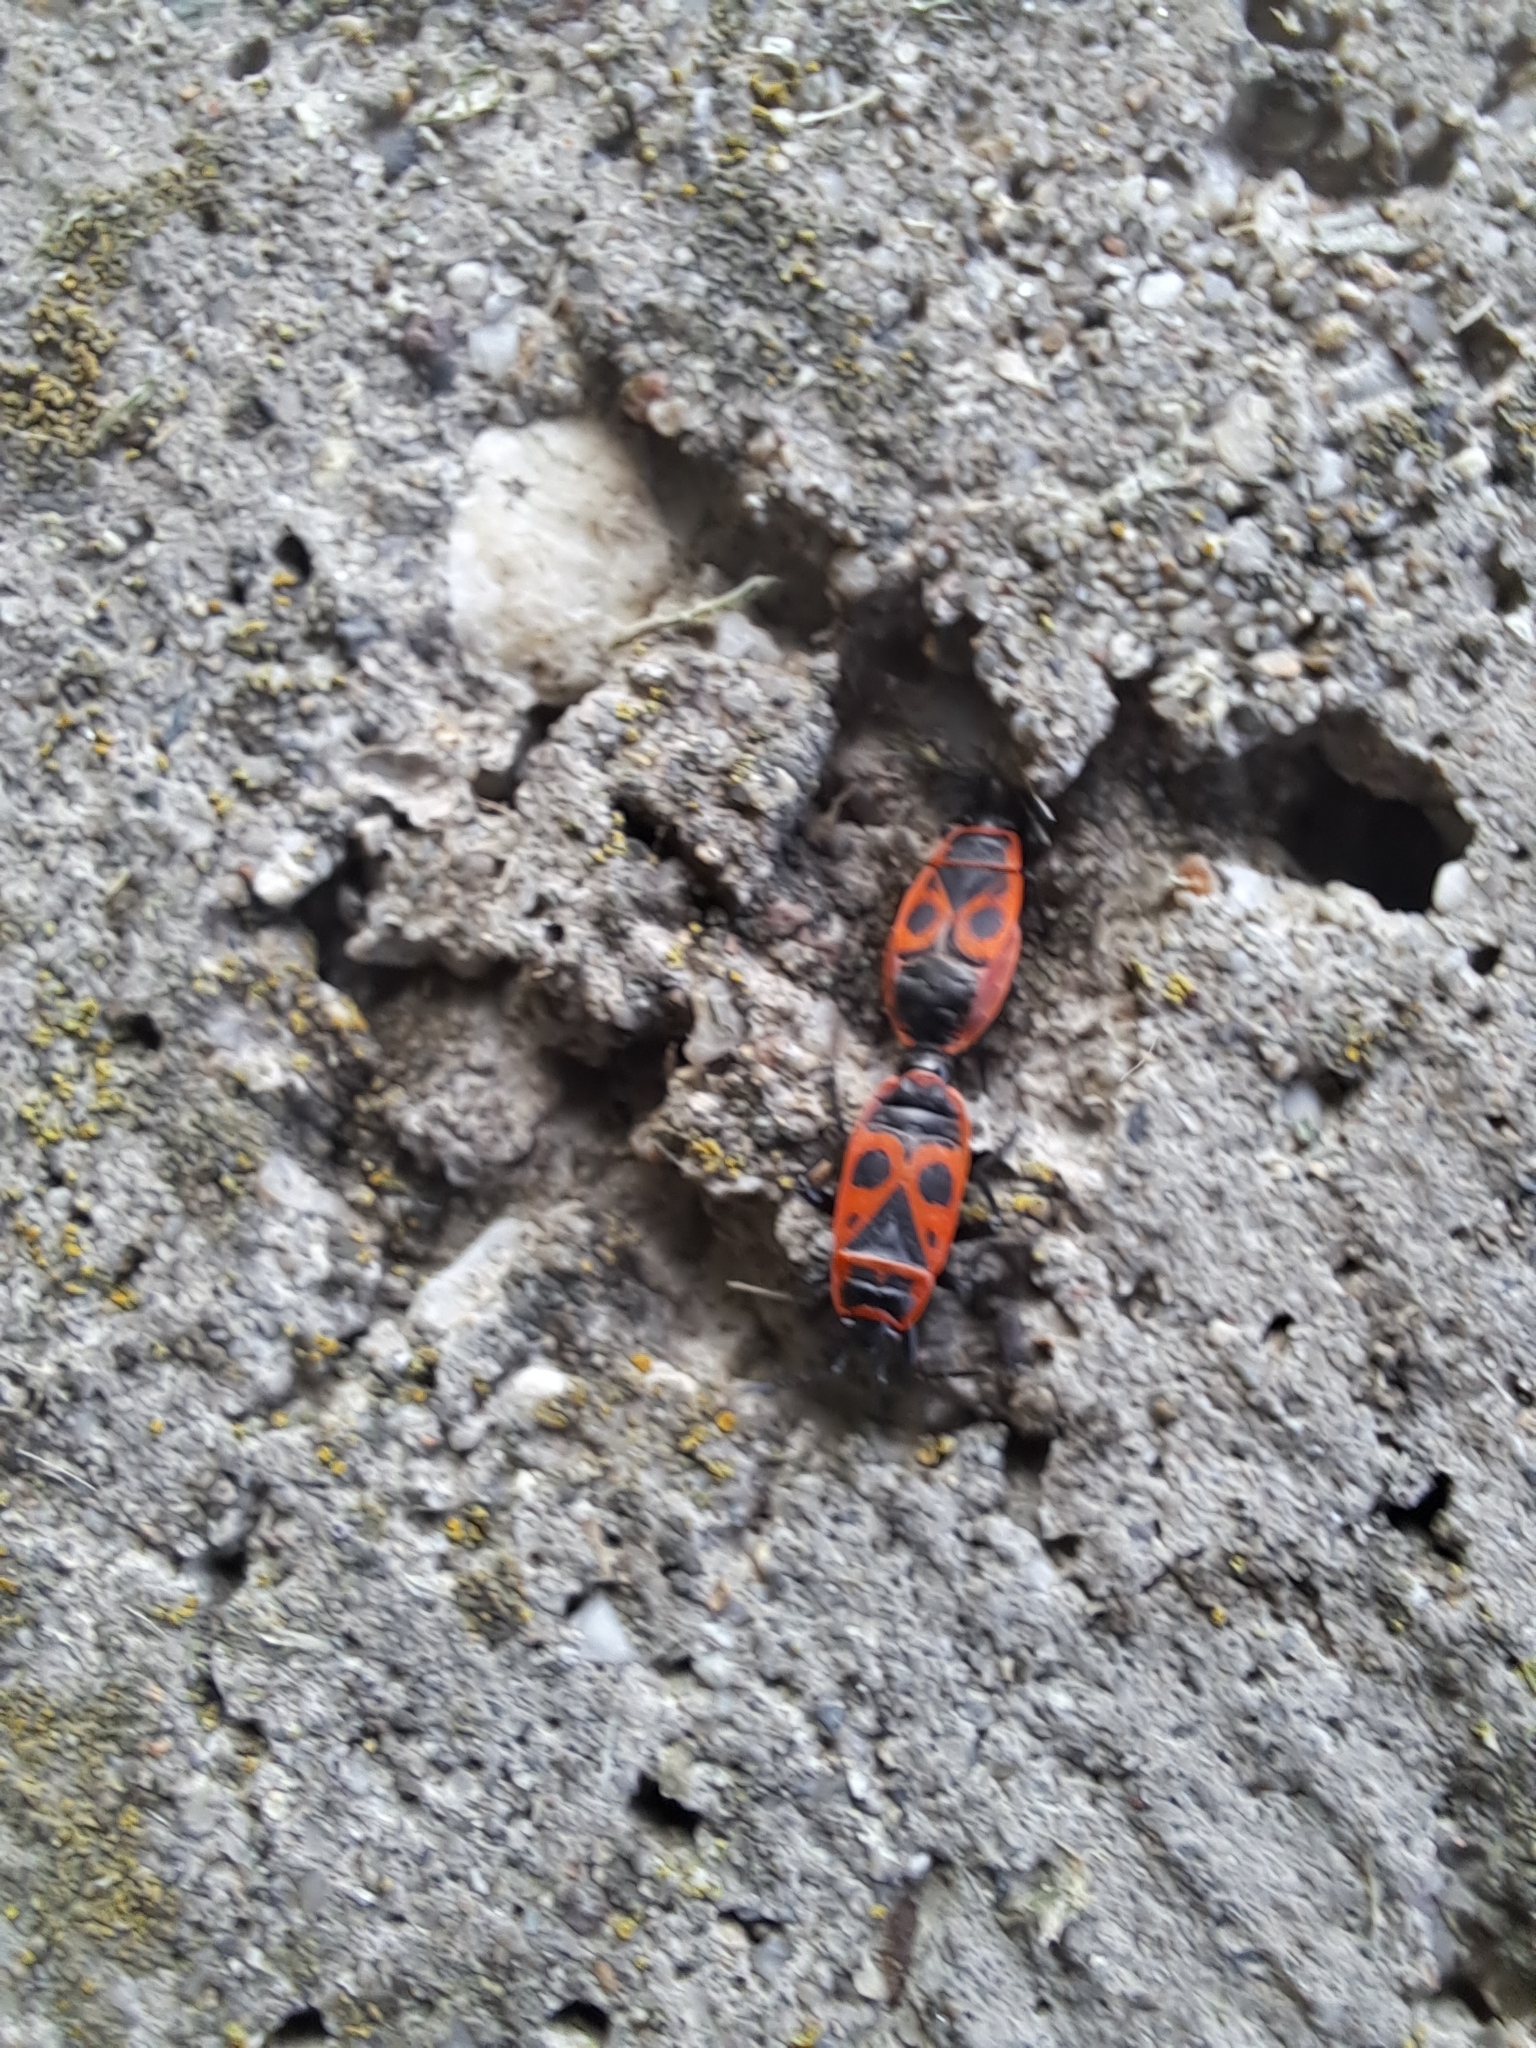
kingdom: Animalia
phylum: Arthropoda
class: Insecta
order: Hemiptera
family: Pyrrhocoridae
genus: Pyrrhocoris
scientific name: Pyrrhocoris apterus
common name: Firebug
